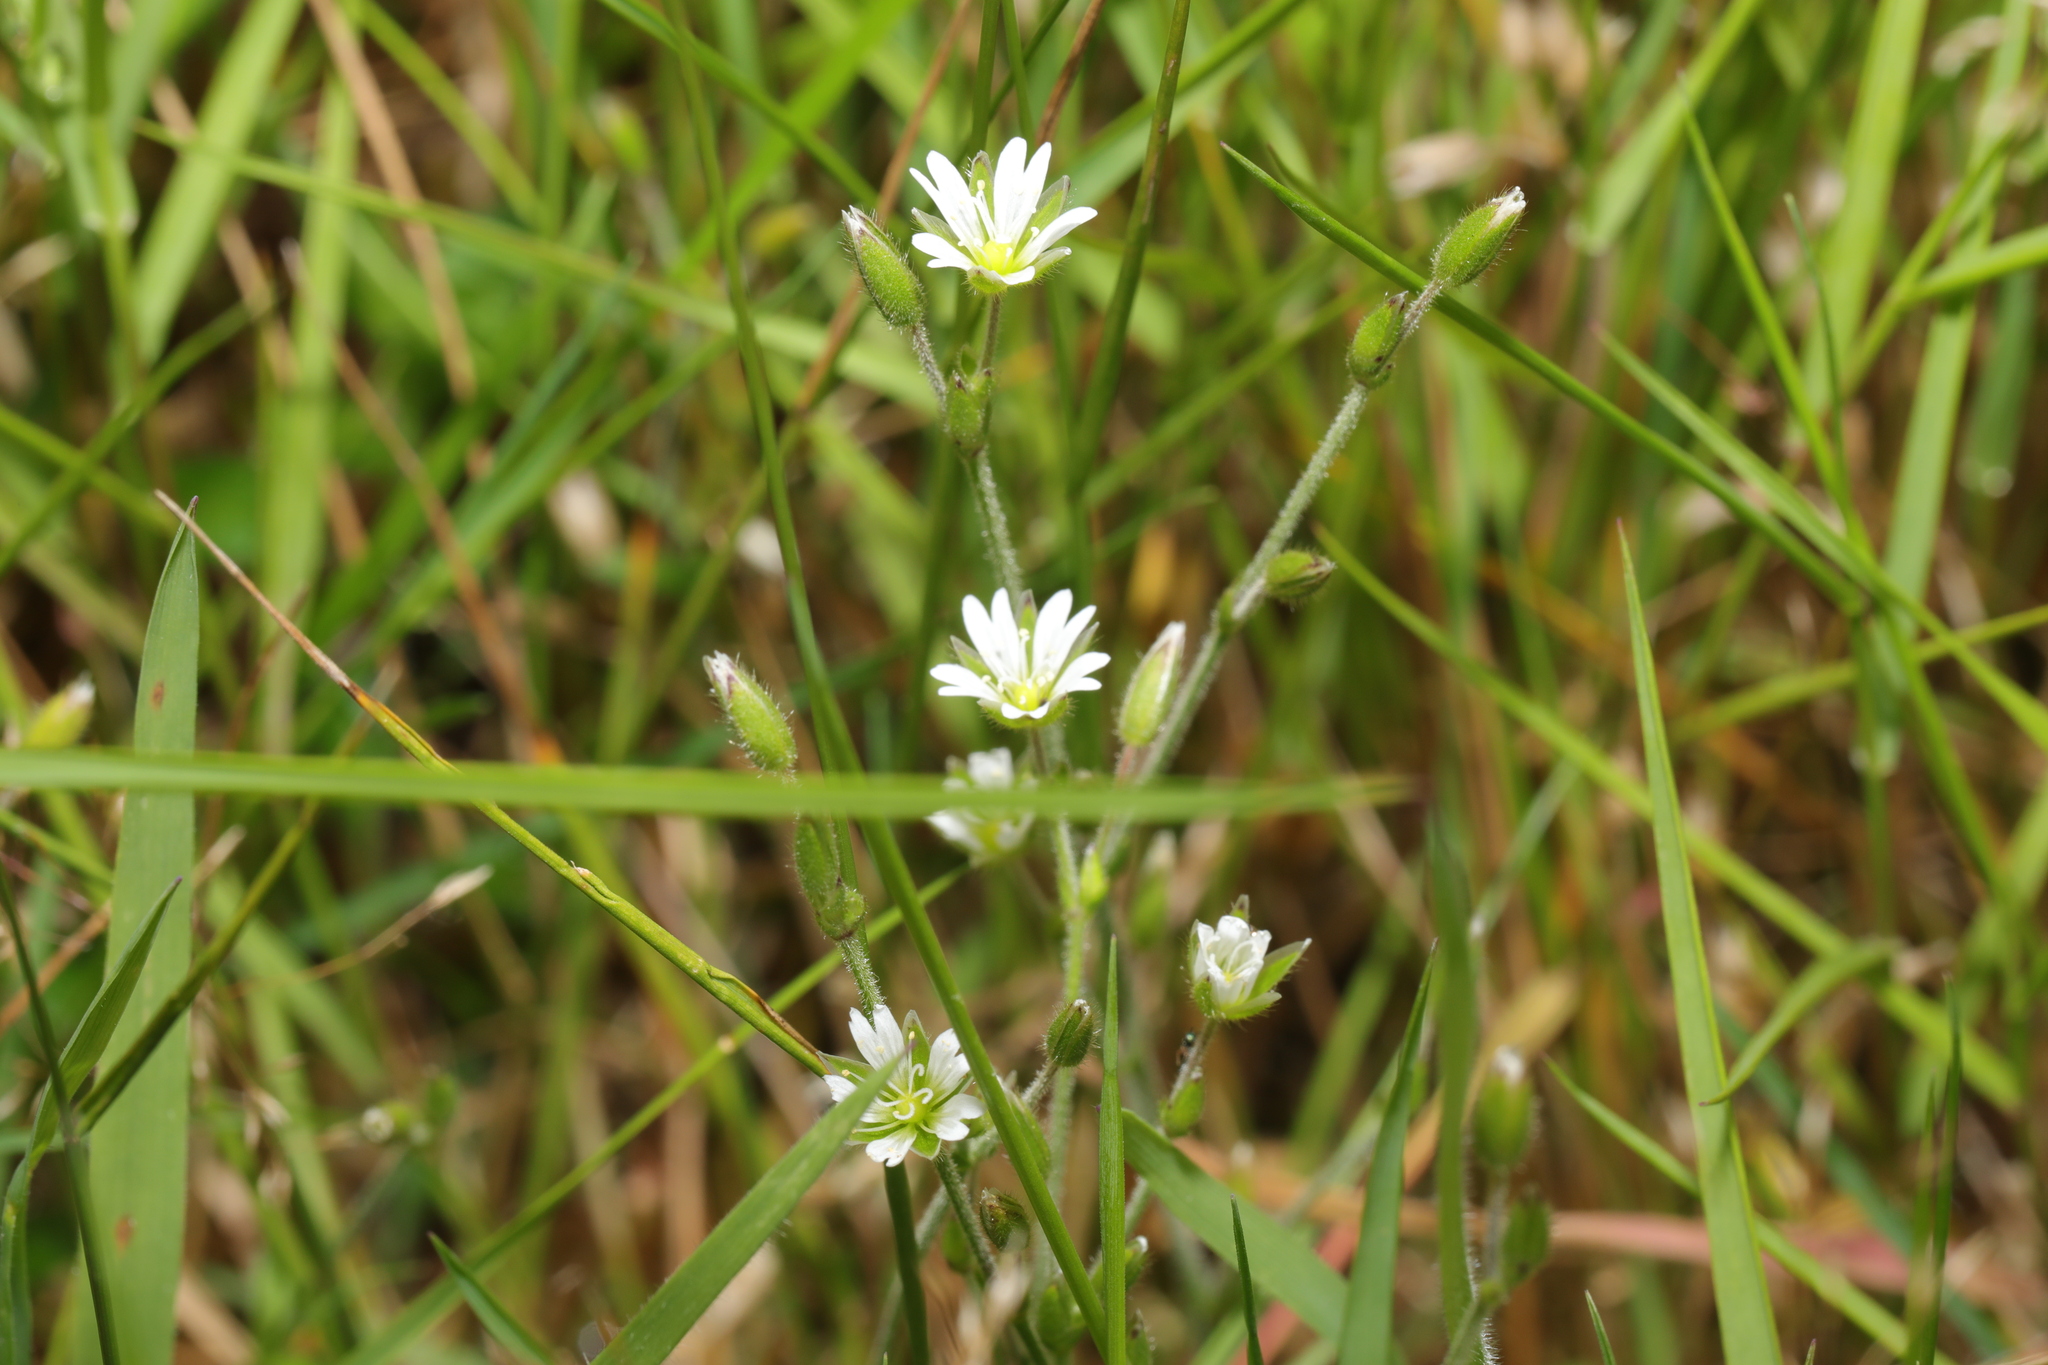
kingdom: Plantae
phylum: Tracheophyta
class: Magnoliopsida
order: Caryophyllales
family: Caryophyllaceae
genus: Cerastium
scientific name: Cerastium fontanum
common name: Common mouse-ear
